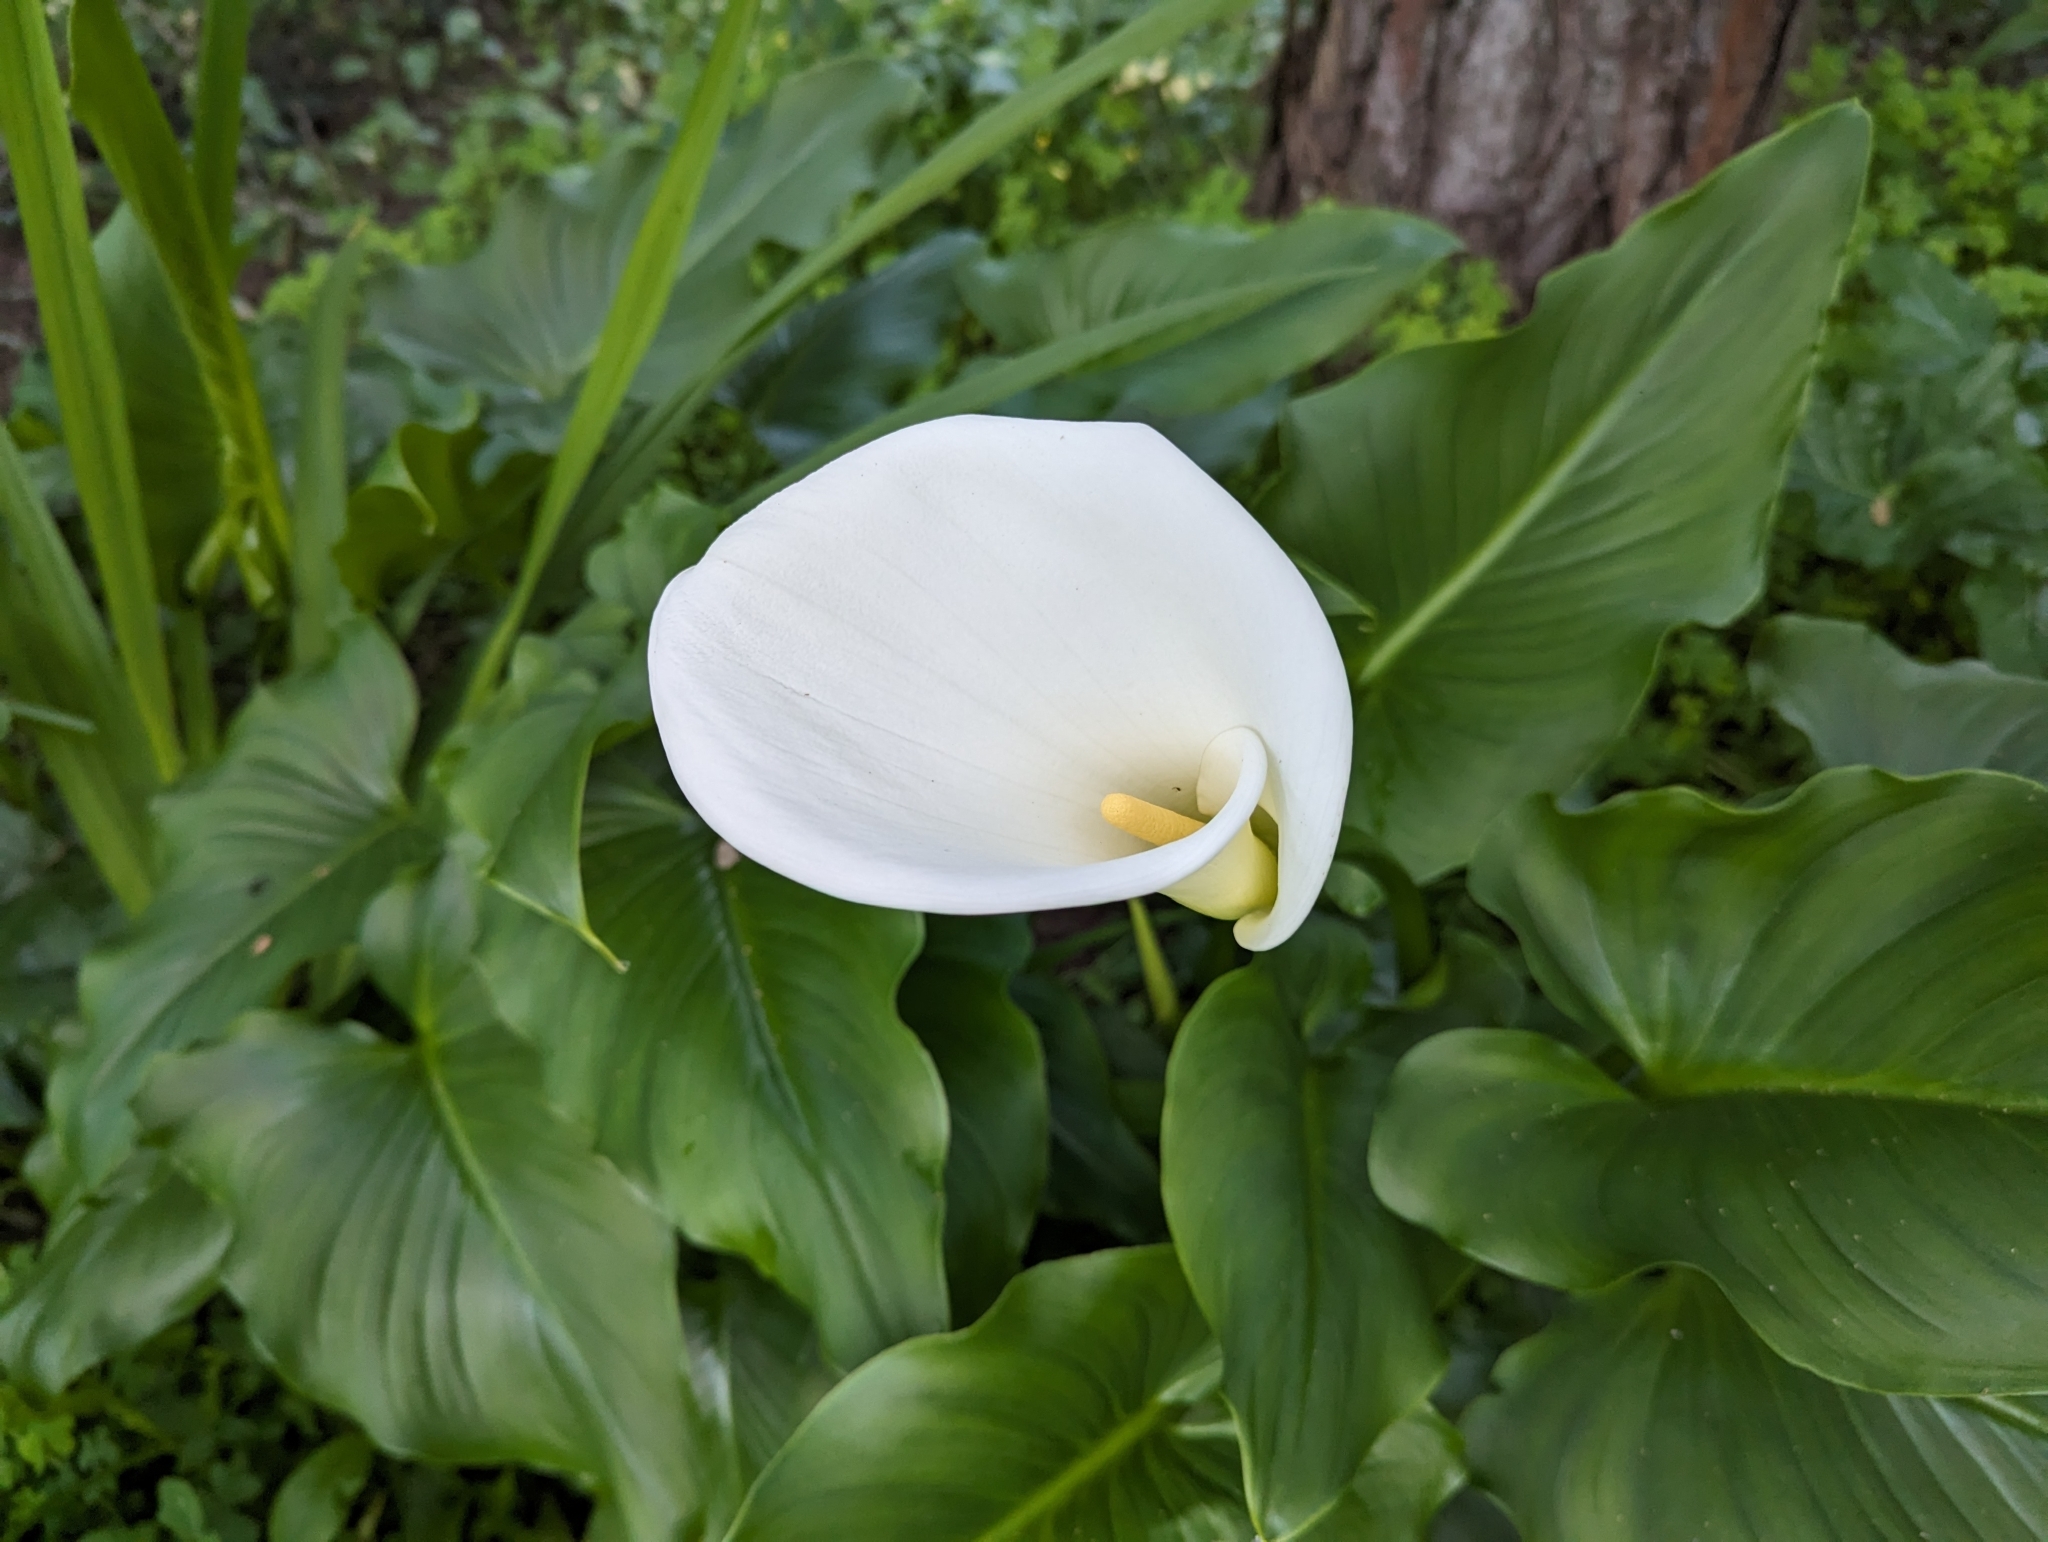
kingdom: Plantae
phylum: Tracheophyta
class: Liliopsida
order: Alismatales
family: Araceae
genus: Zantedeschia
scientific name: Zantedeschia aethiopica
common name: Altar-lily
